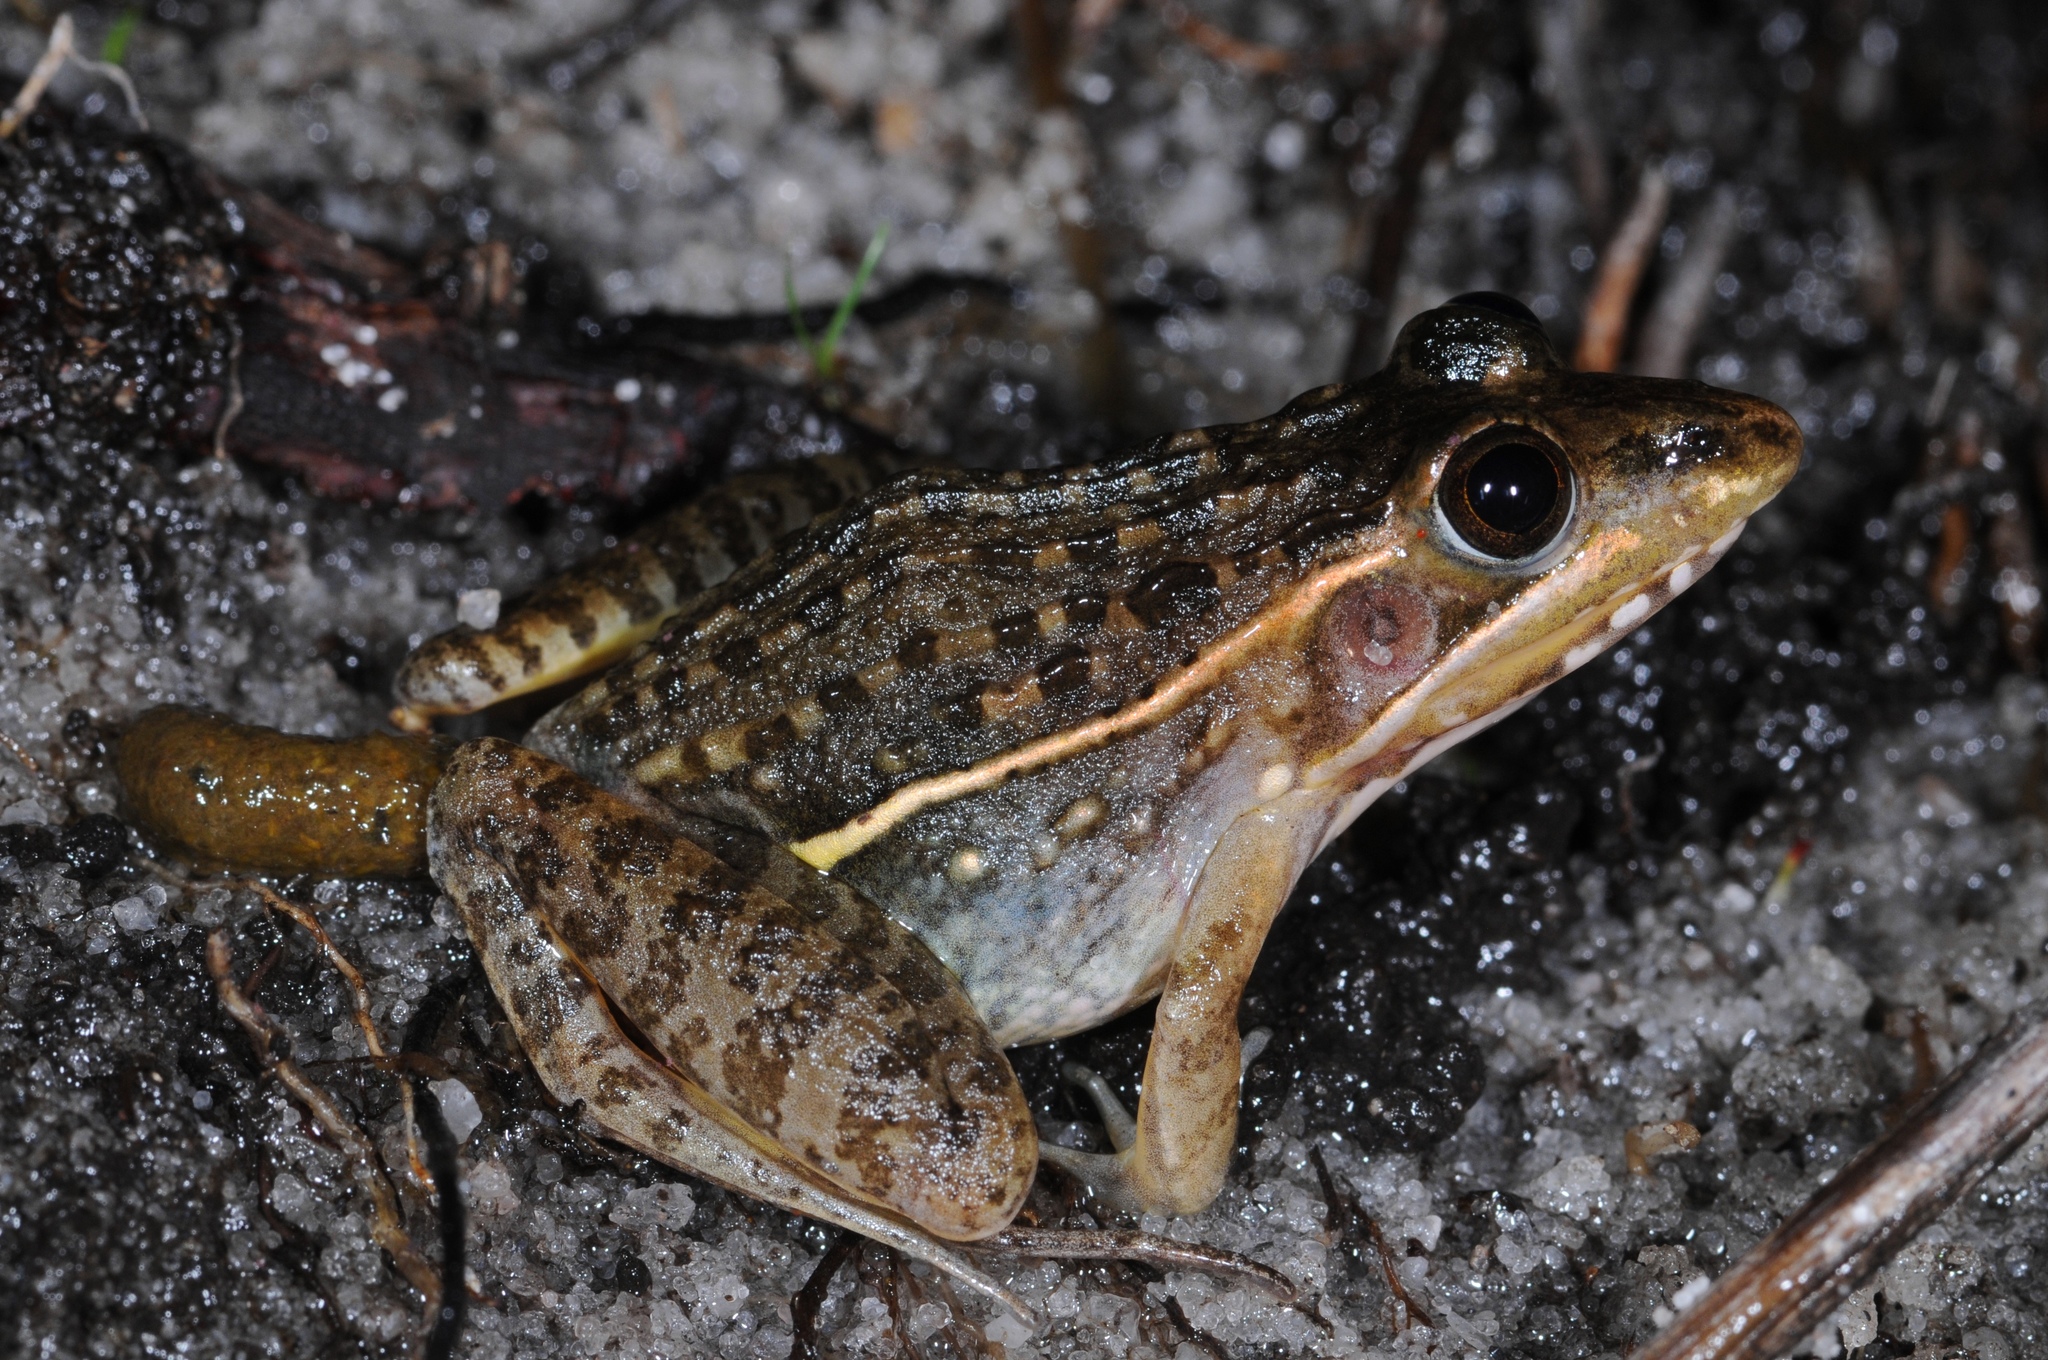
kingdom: Animalia
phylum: Chordata
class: Amphibia
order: Anura
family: Ptychadenidae
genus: Ptychadena
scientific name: Ptychadena taenioscelis
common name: Lukula grassland frog
